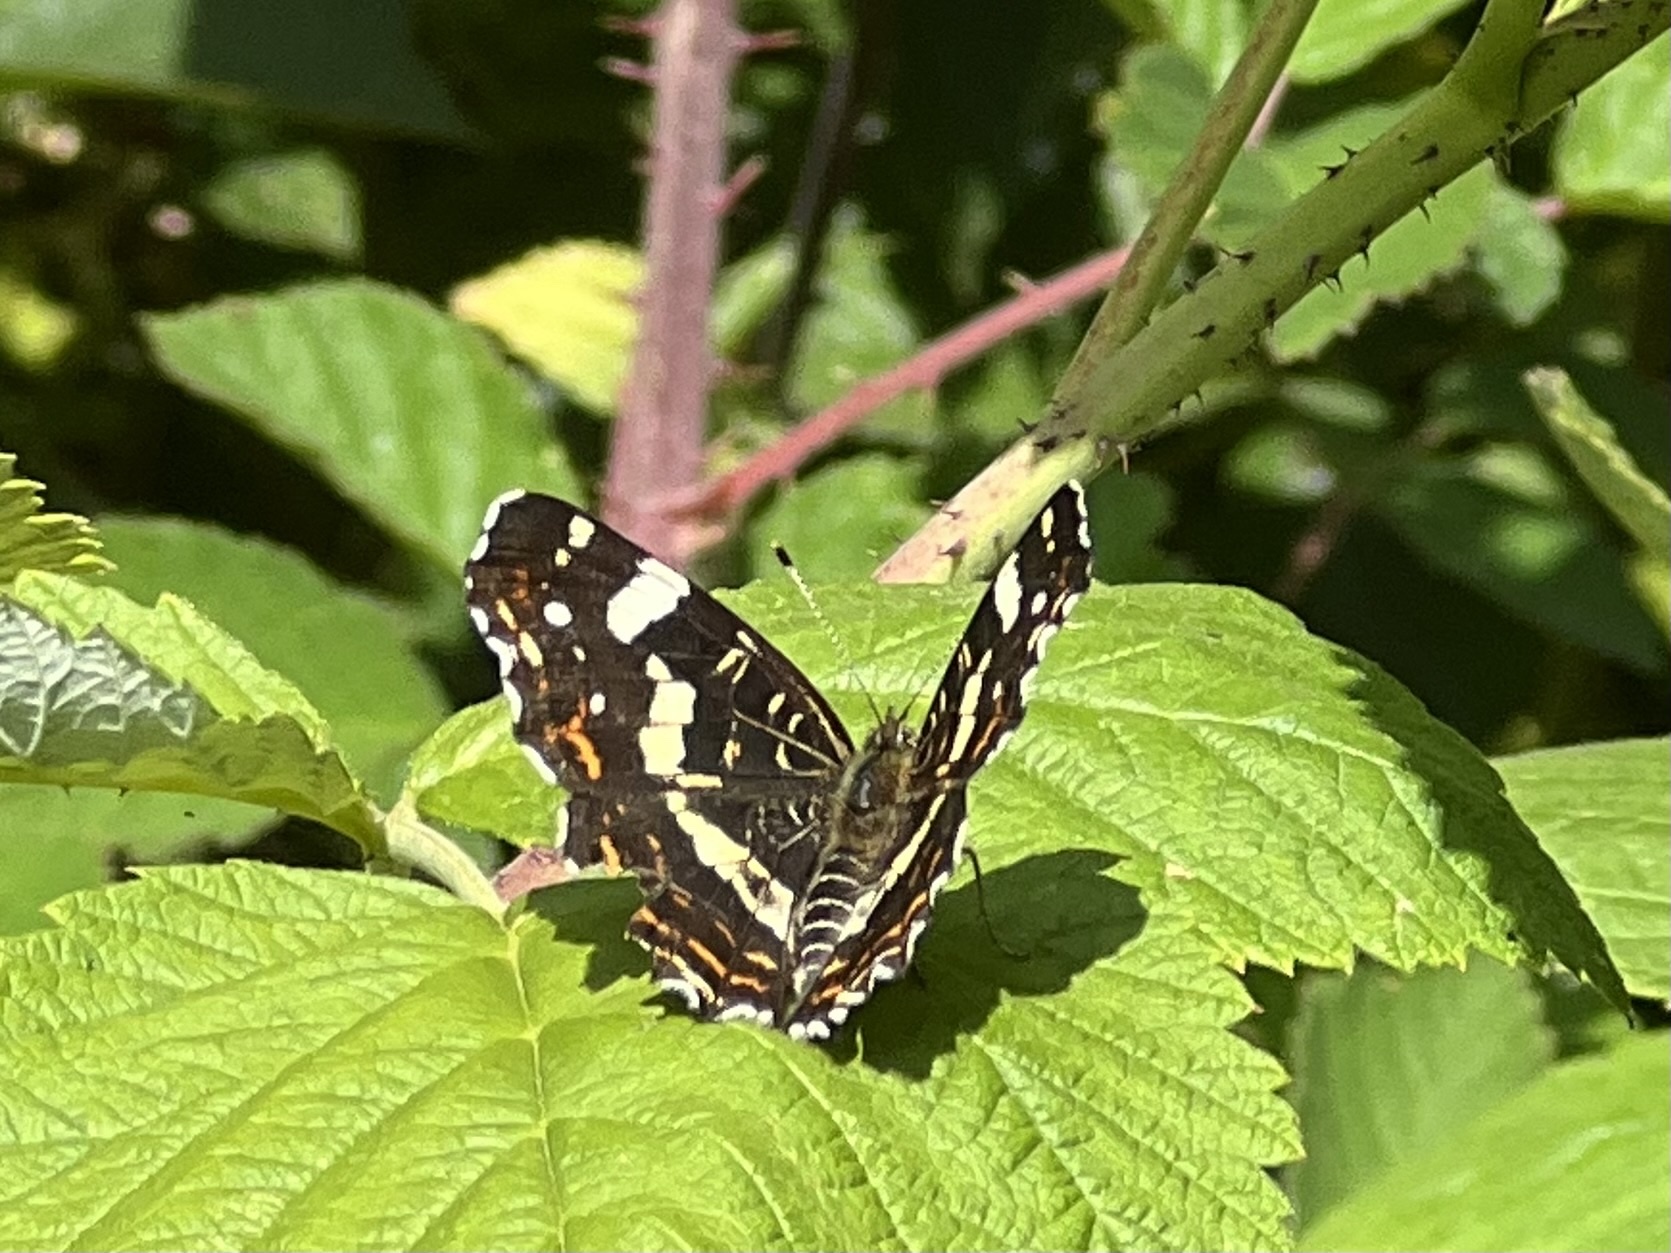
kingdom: Animalia
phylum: Arthropoda
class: Insecta
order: Lepidoptera
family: Nymphalidae
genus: Araschnia
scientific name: Araschnia levana
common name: Map butterfly
